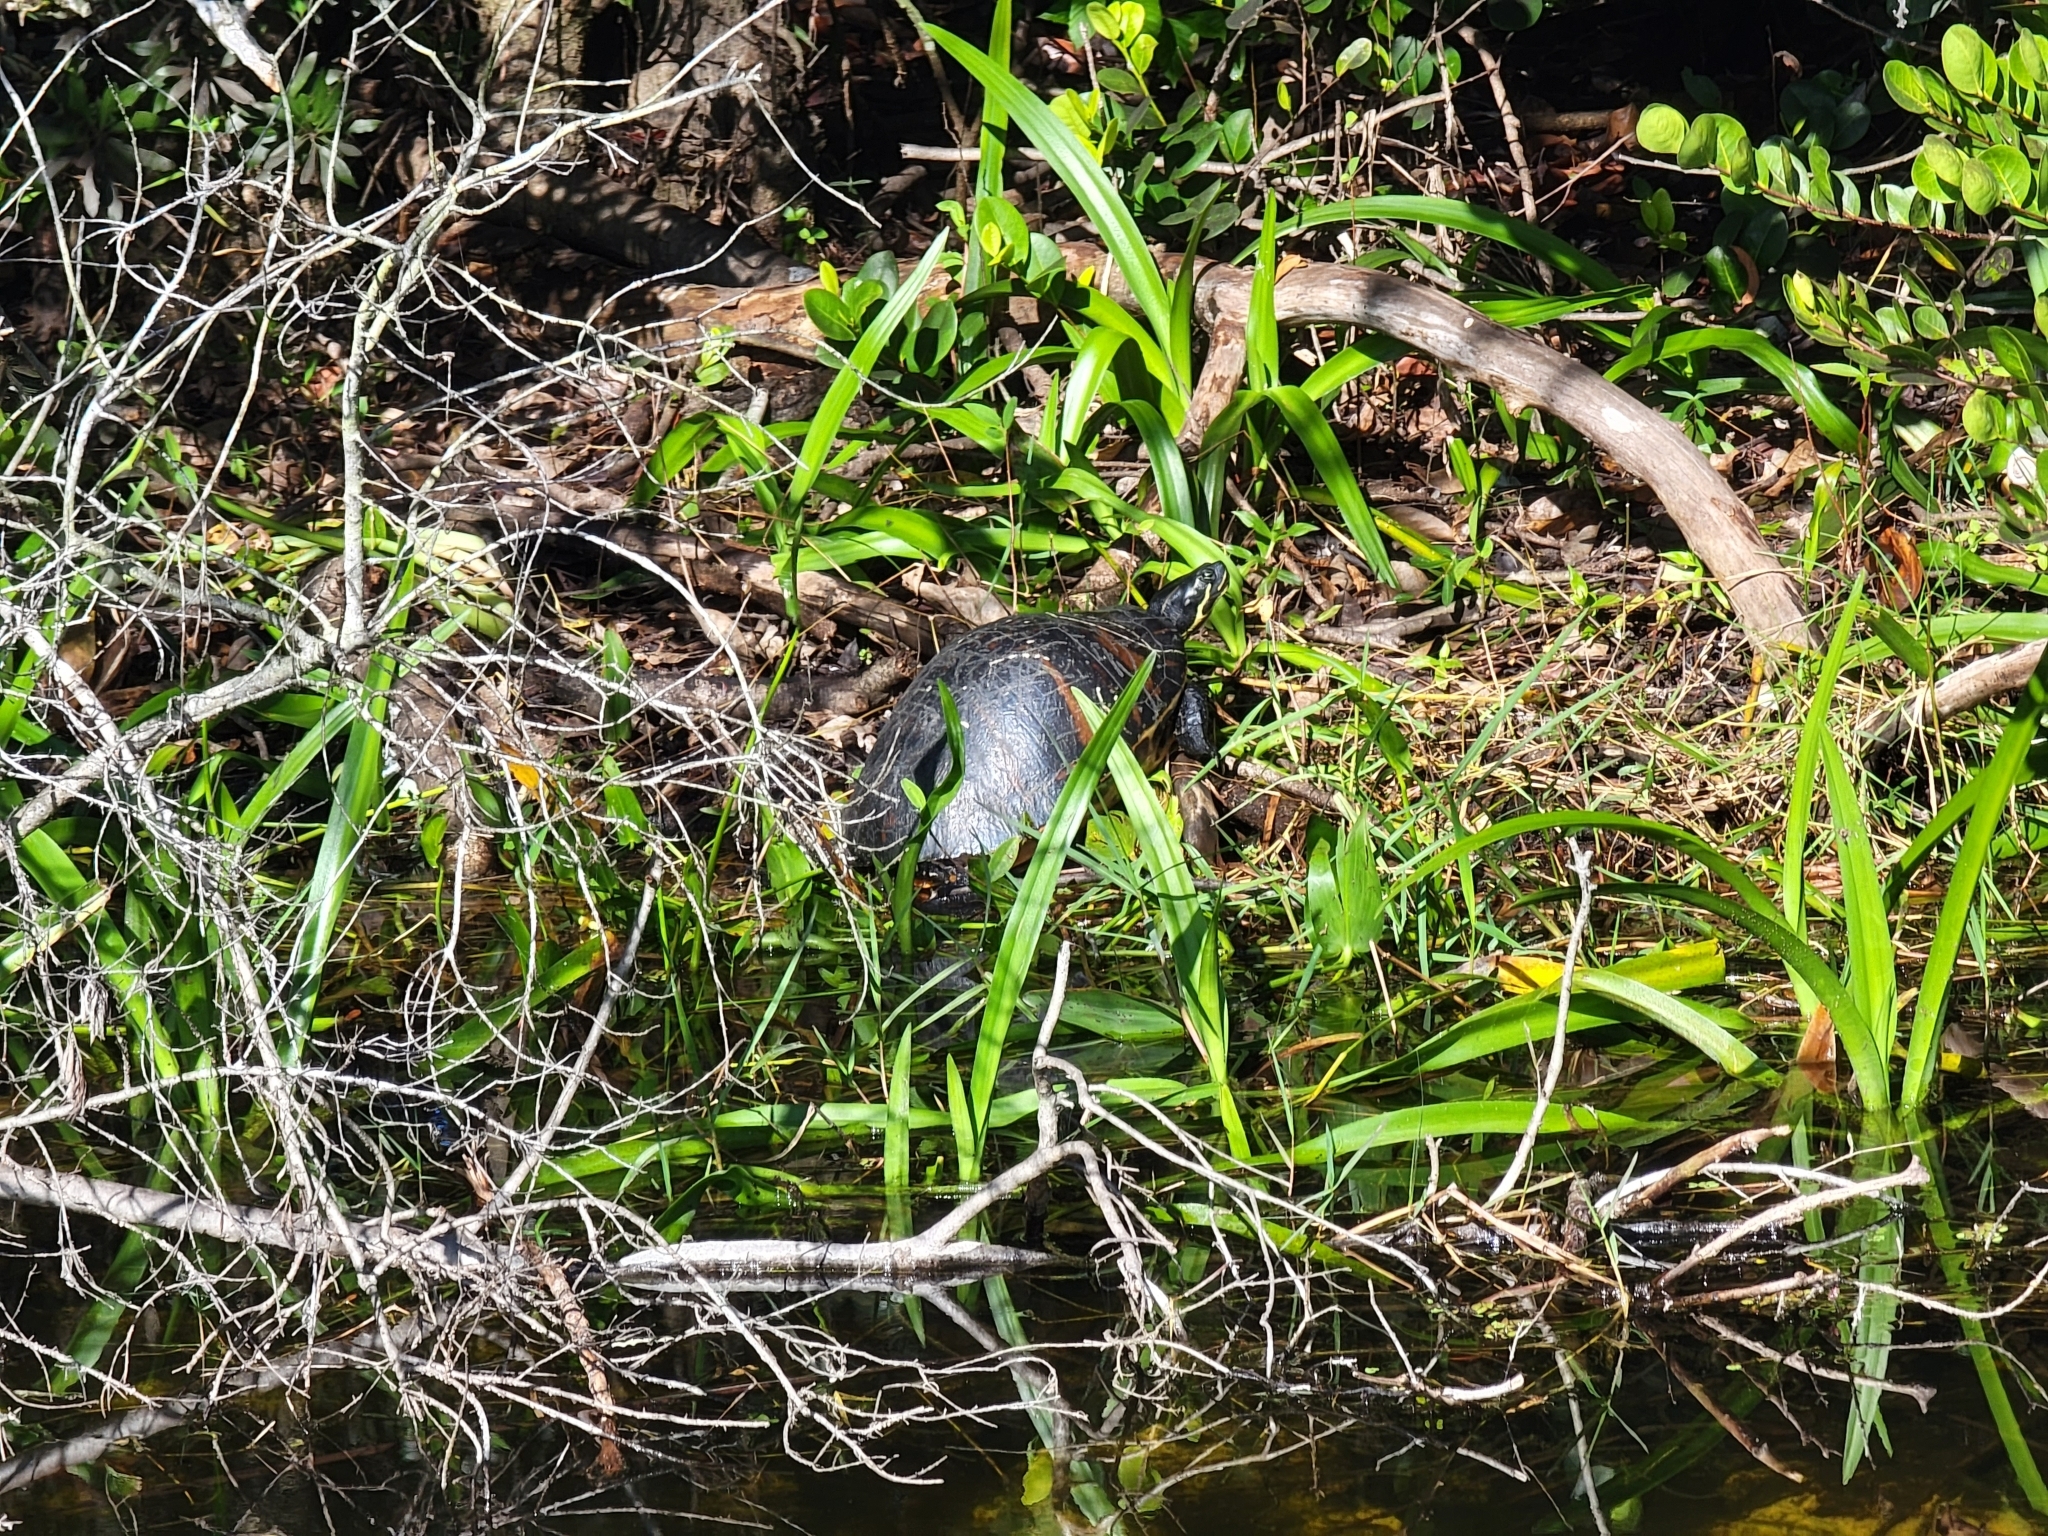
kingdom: Animalia
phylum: Chordata
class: Testudines
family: Emydidae
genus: Pseudemys
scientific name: Pseudemys nelsoni
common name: Florida red-bellied turtle
